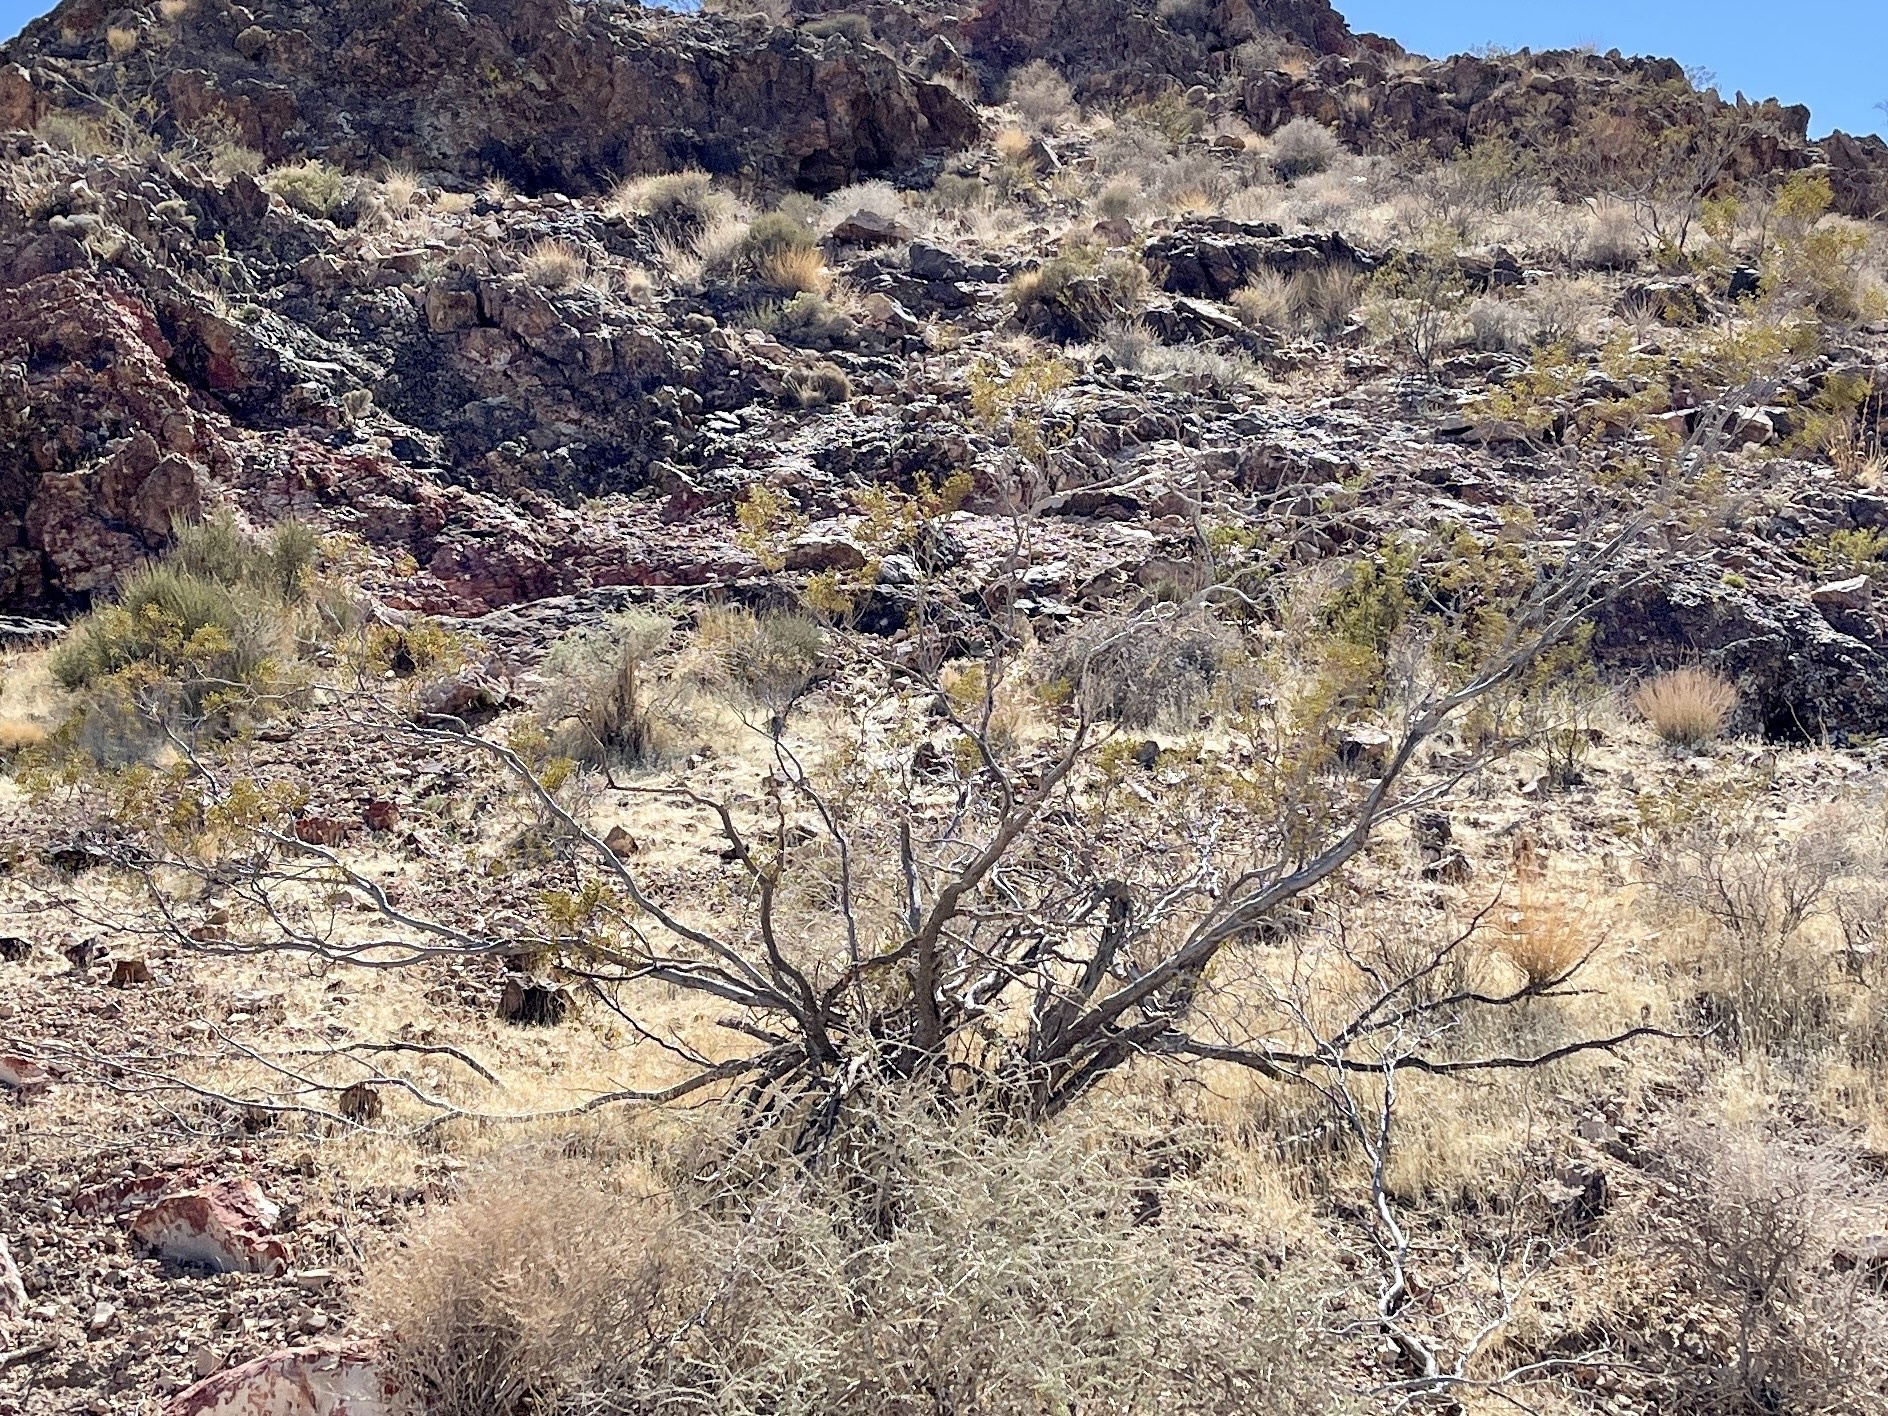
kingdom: Plantae
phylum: Tracheophyta
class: Magnoliopsida
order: Zygophyllales
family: Zygophyllaceae
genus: Larrea
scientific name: Larrea tridentata
